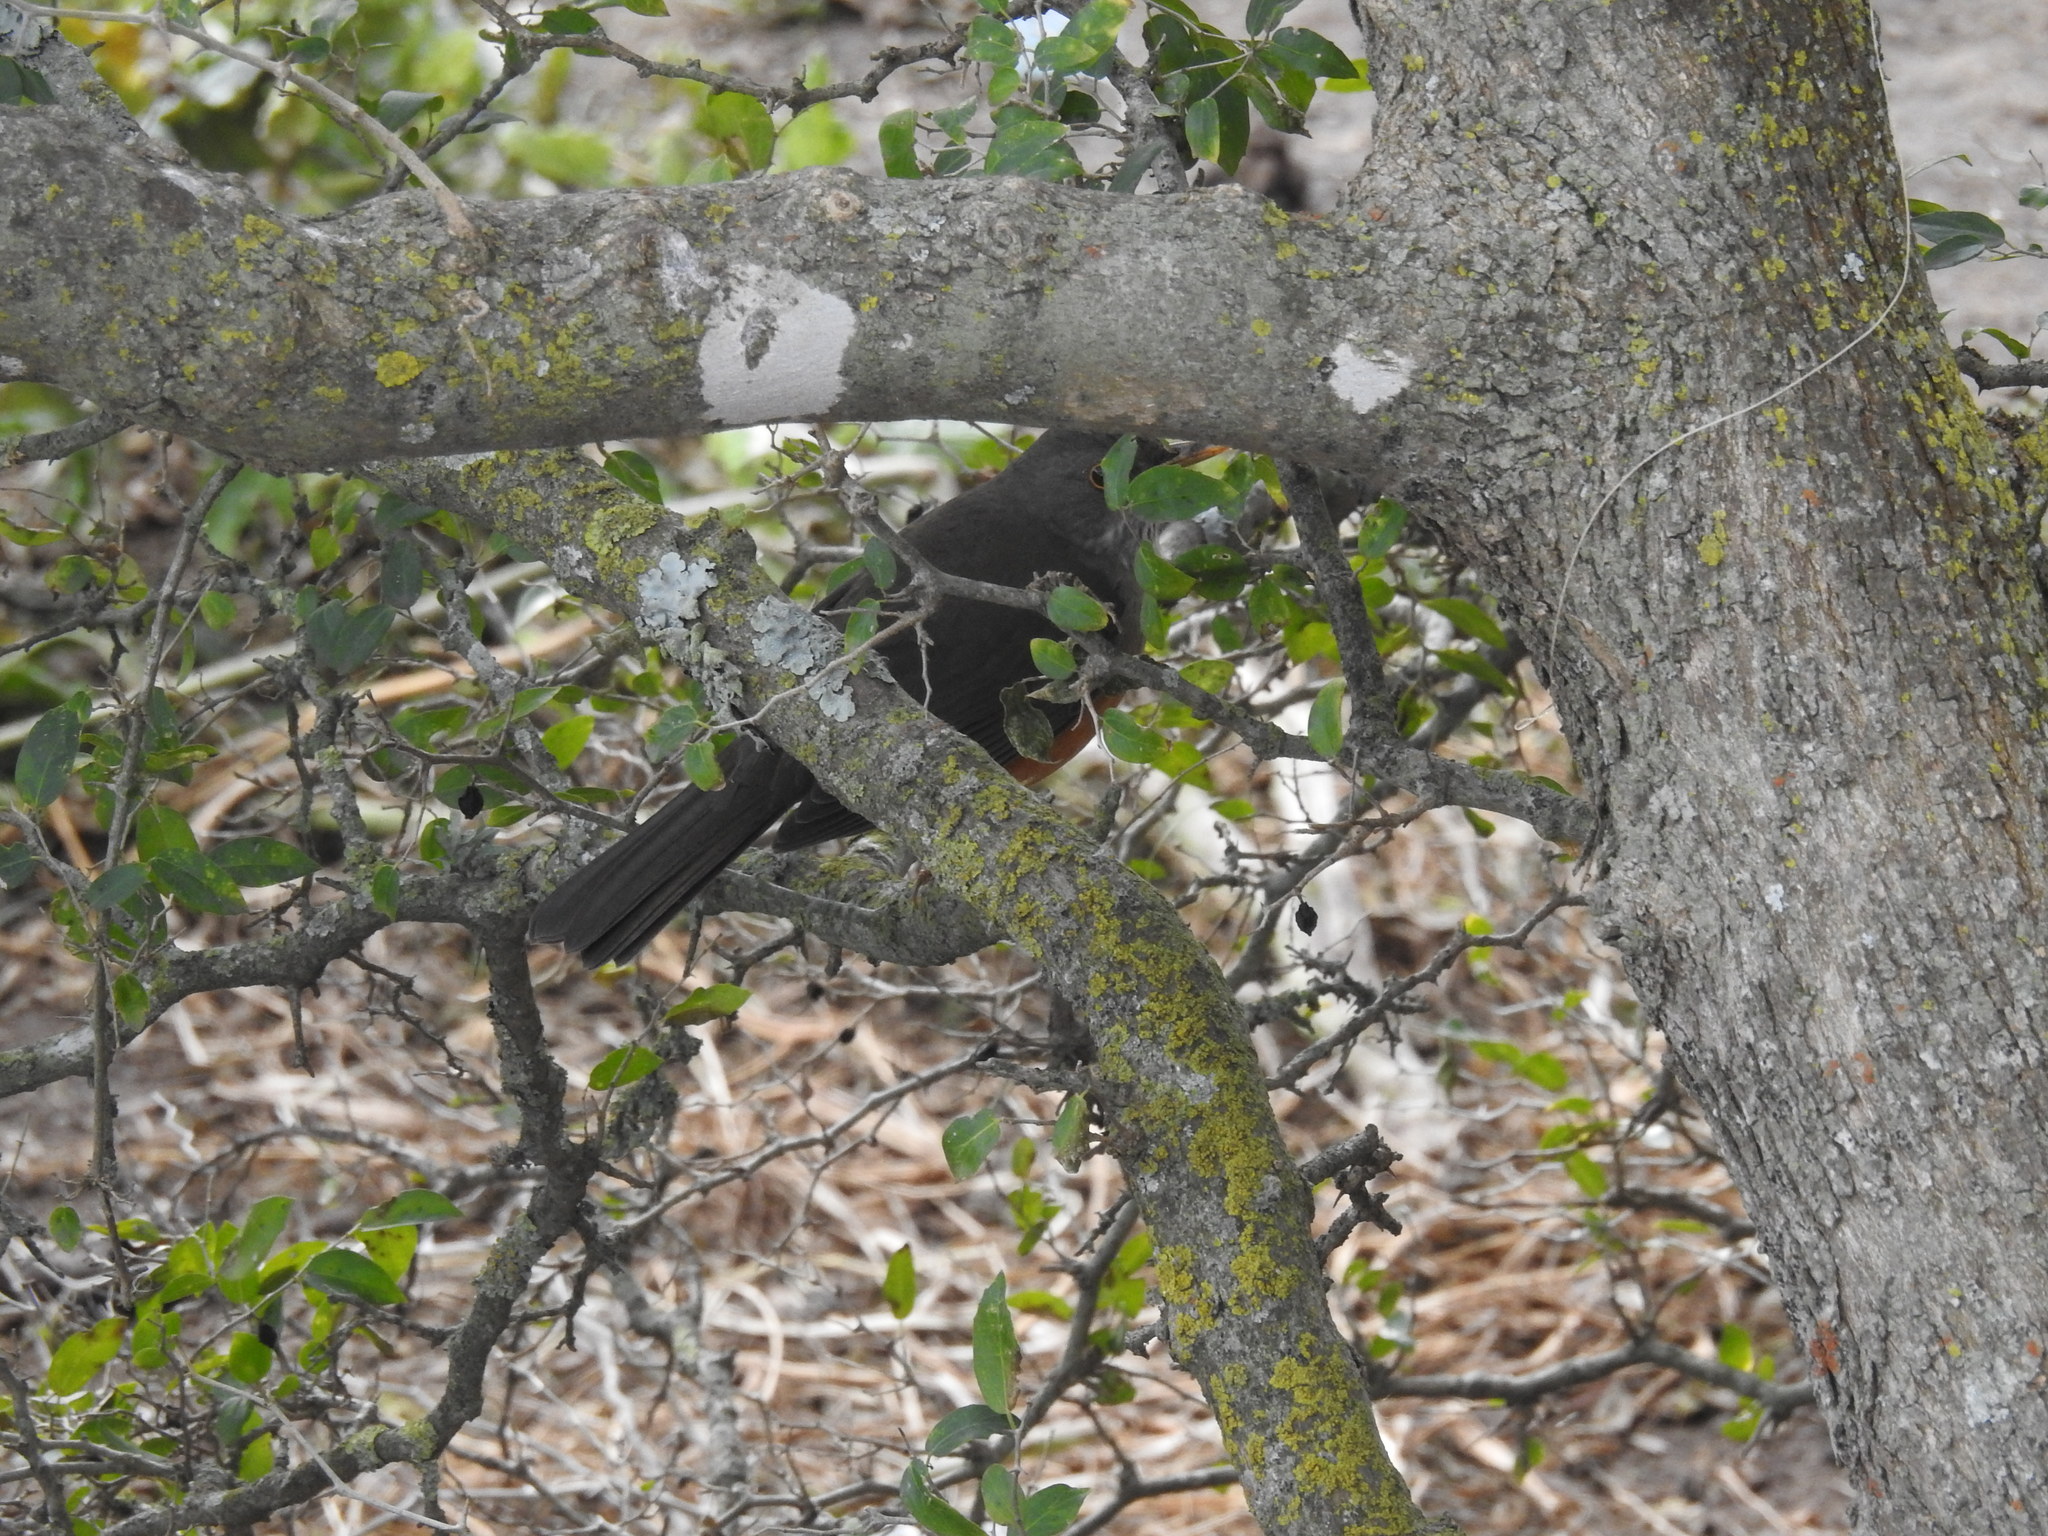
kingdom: Animalia
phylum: Chordata
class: Aves
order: Passeriformes
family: Turdidae
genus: Turdus
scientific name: Turdus rufiventris
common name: Rufous-bellied thrush
